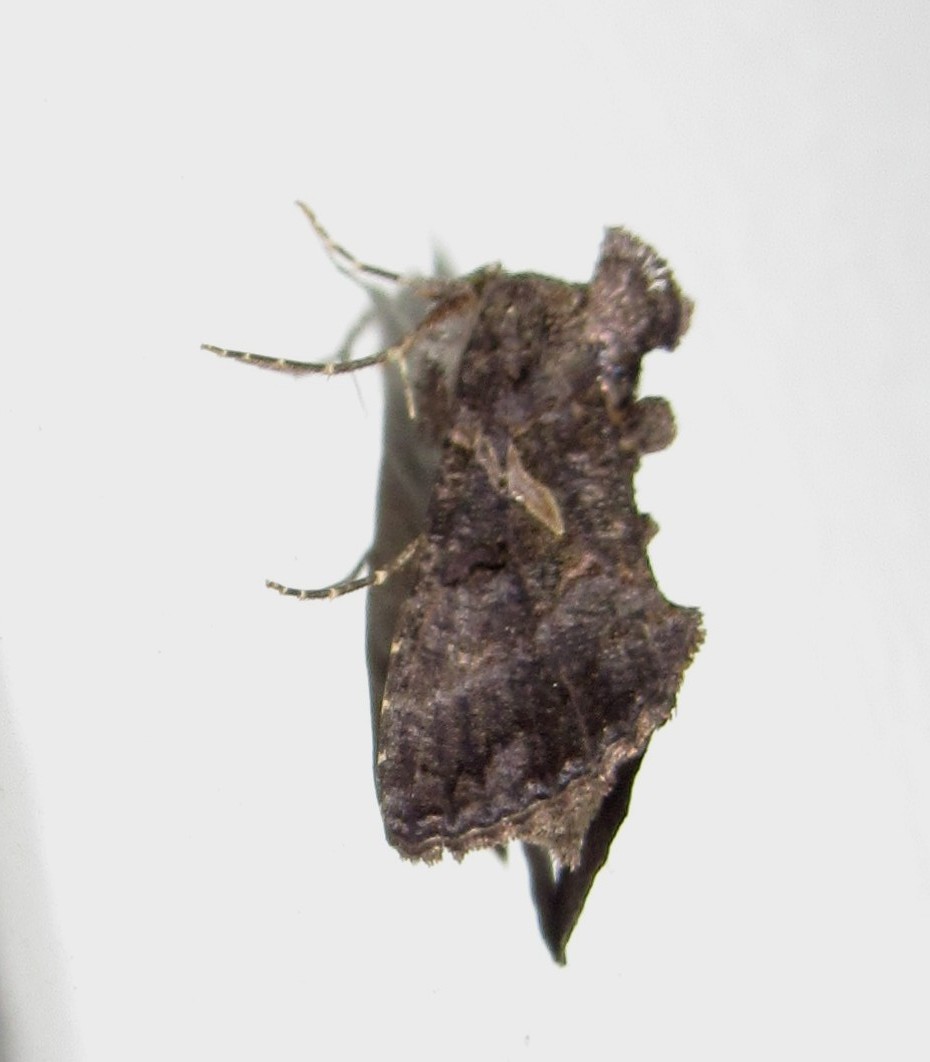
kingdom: Animalia
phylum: Arthropoda
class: Insecta
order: Lepidoptera
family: Noctuidae
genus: Ctenoplusia
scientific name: Ctenoplusia oxygramma
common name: Sharp-stigma looper moth
